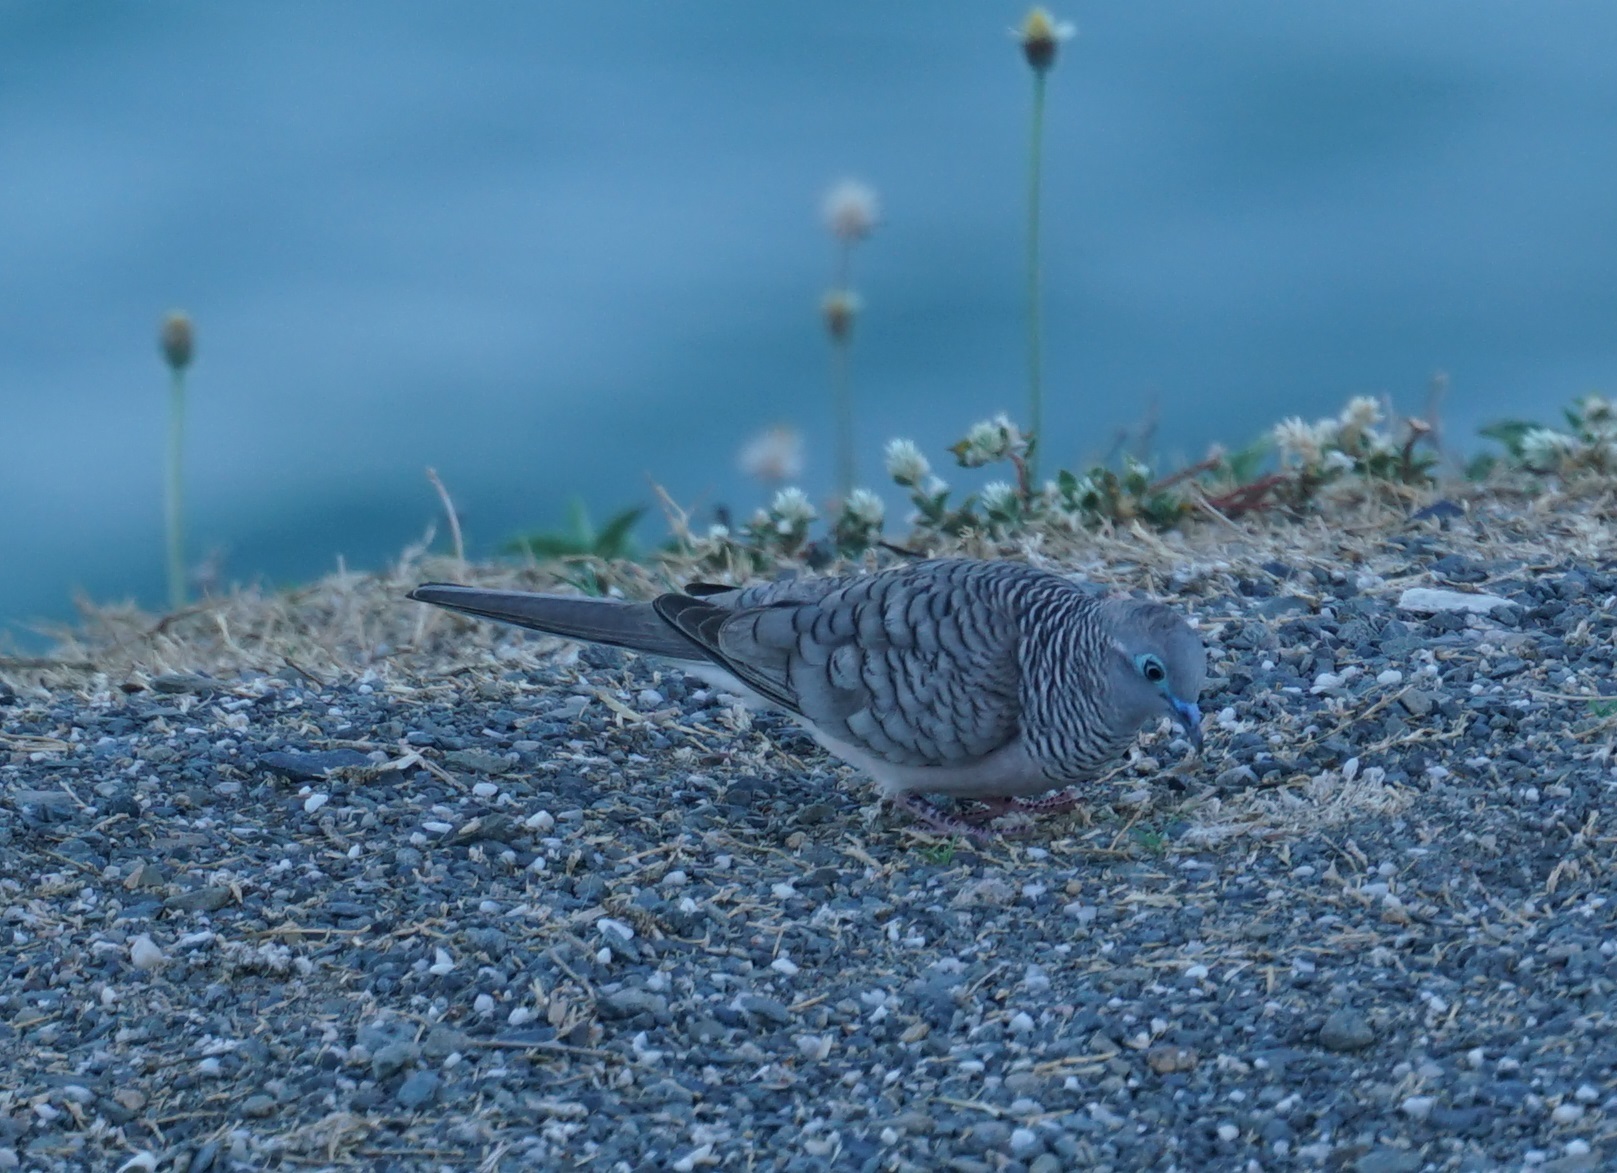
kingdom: Animalia
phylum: Chordata
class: Aves
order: Columbiformes
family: Columbidae
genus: Geopelia
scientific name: Geopelia placida
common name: Peaceful dove
